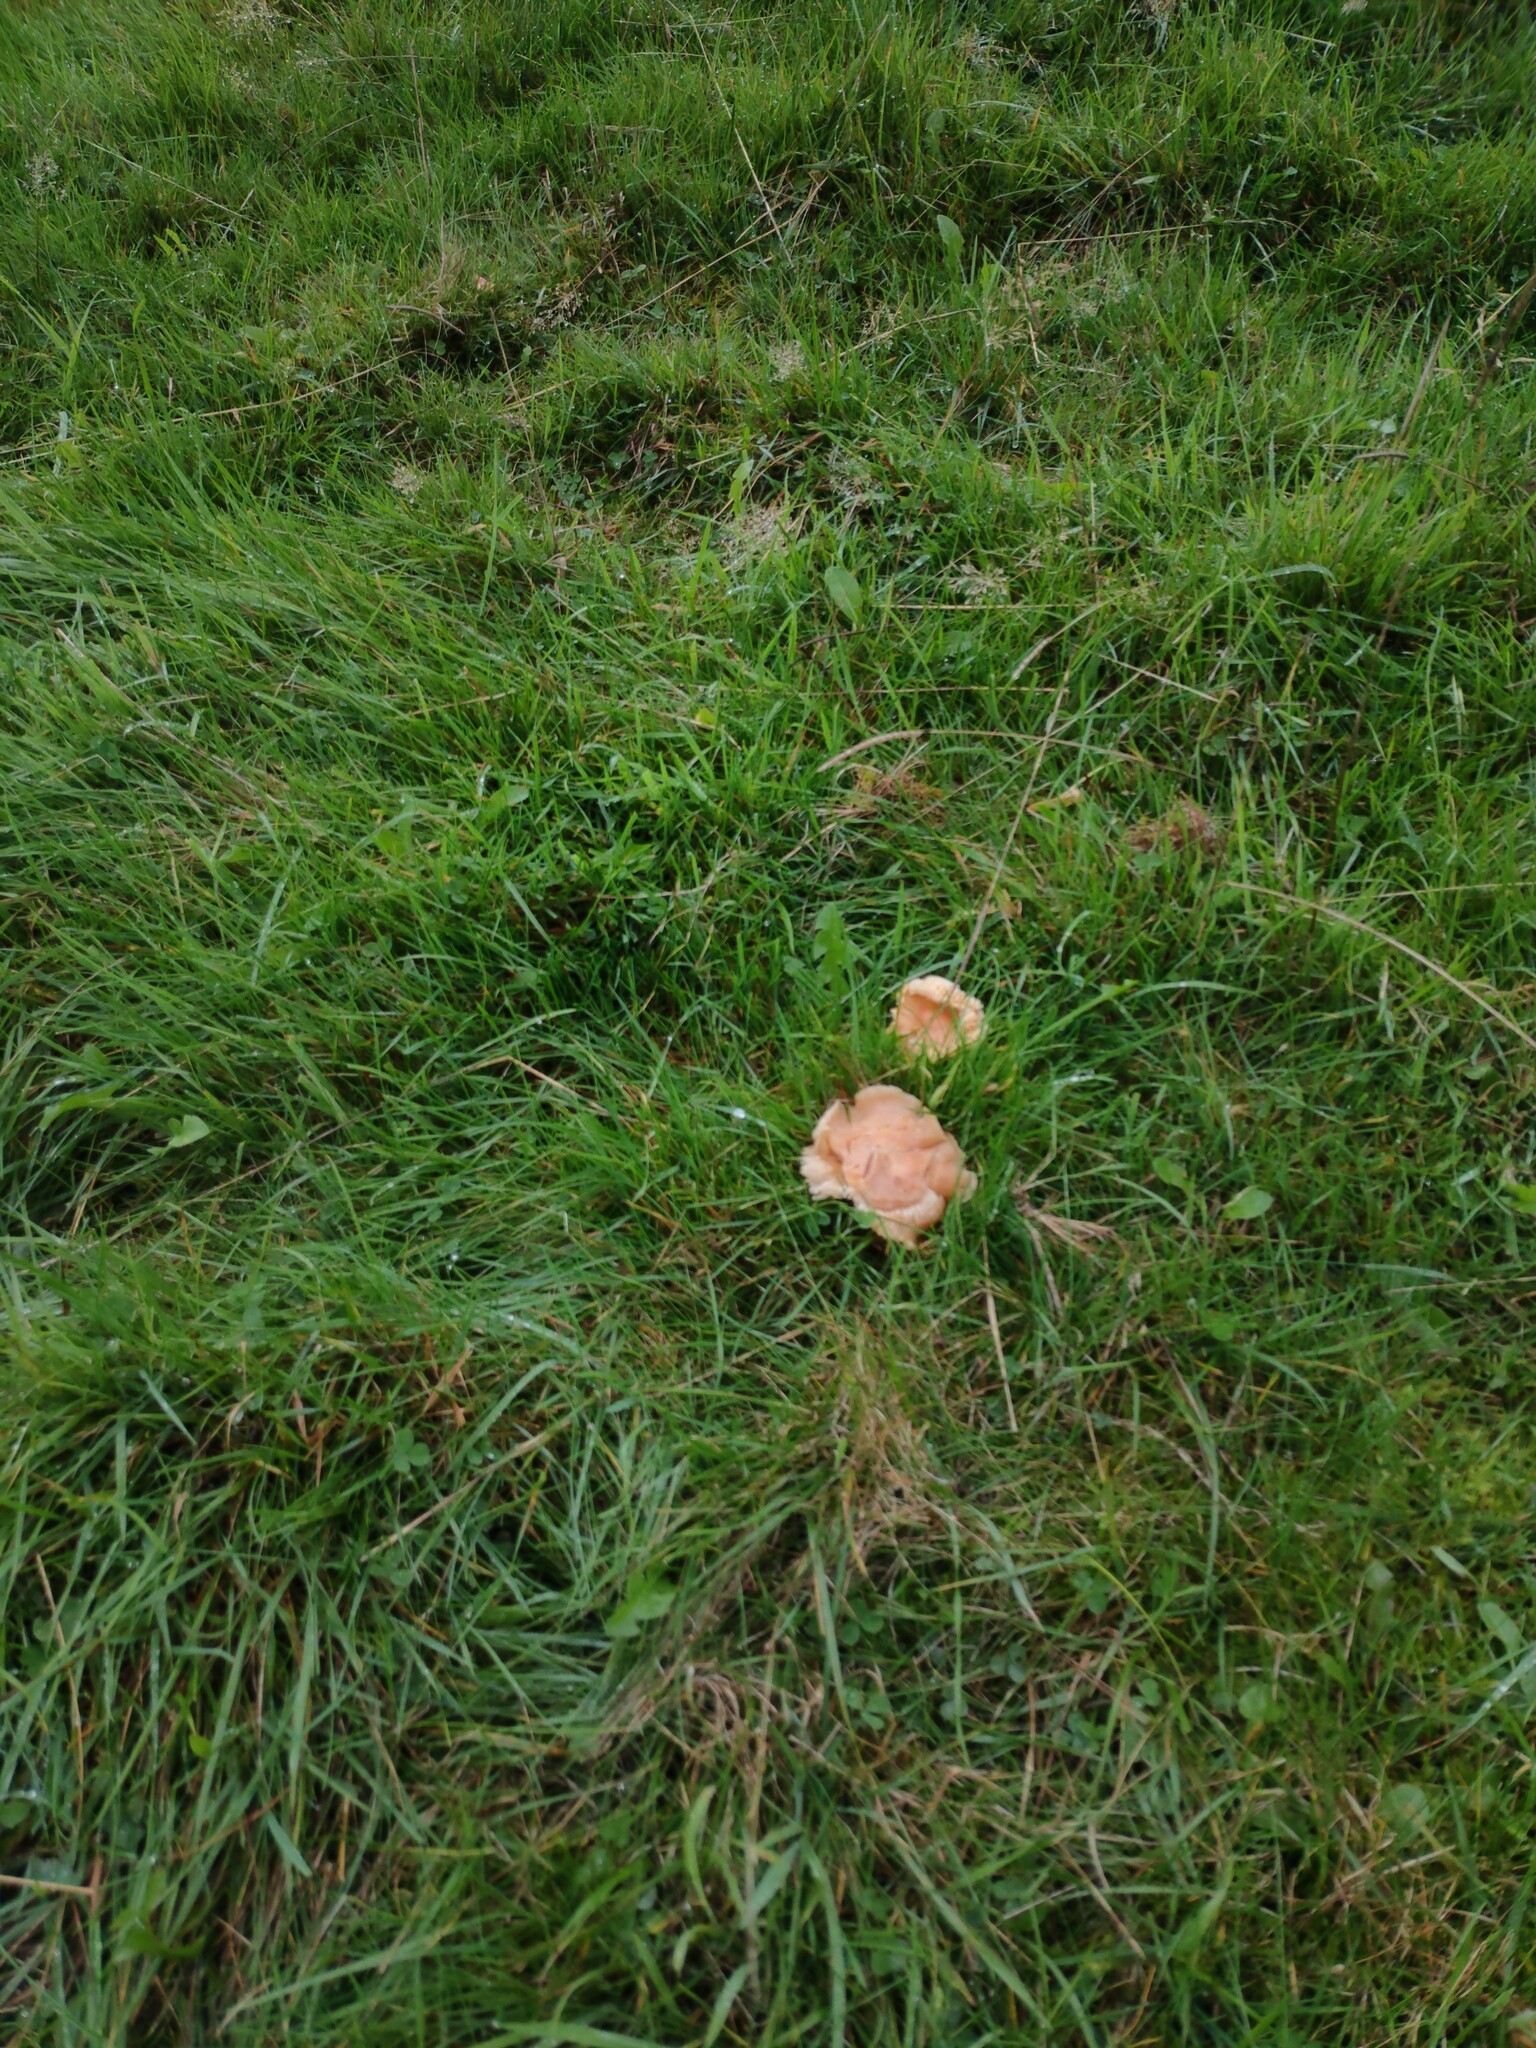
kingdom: Fungi
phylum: Basidiomycota
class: Agaricomycetes
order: Agaricales
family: Hygrophoraceae
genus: Cuphophyllus
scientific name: Cuphophyllus pratensis
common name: Meadow waxcap
